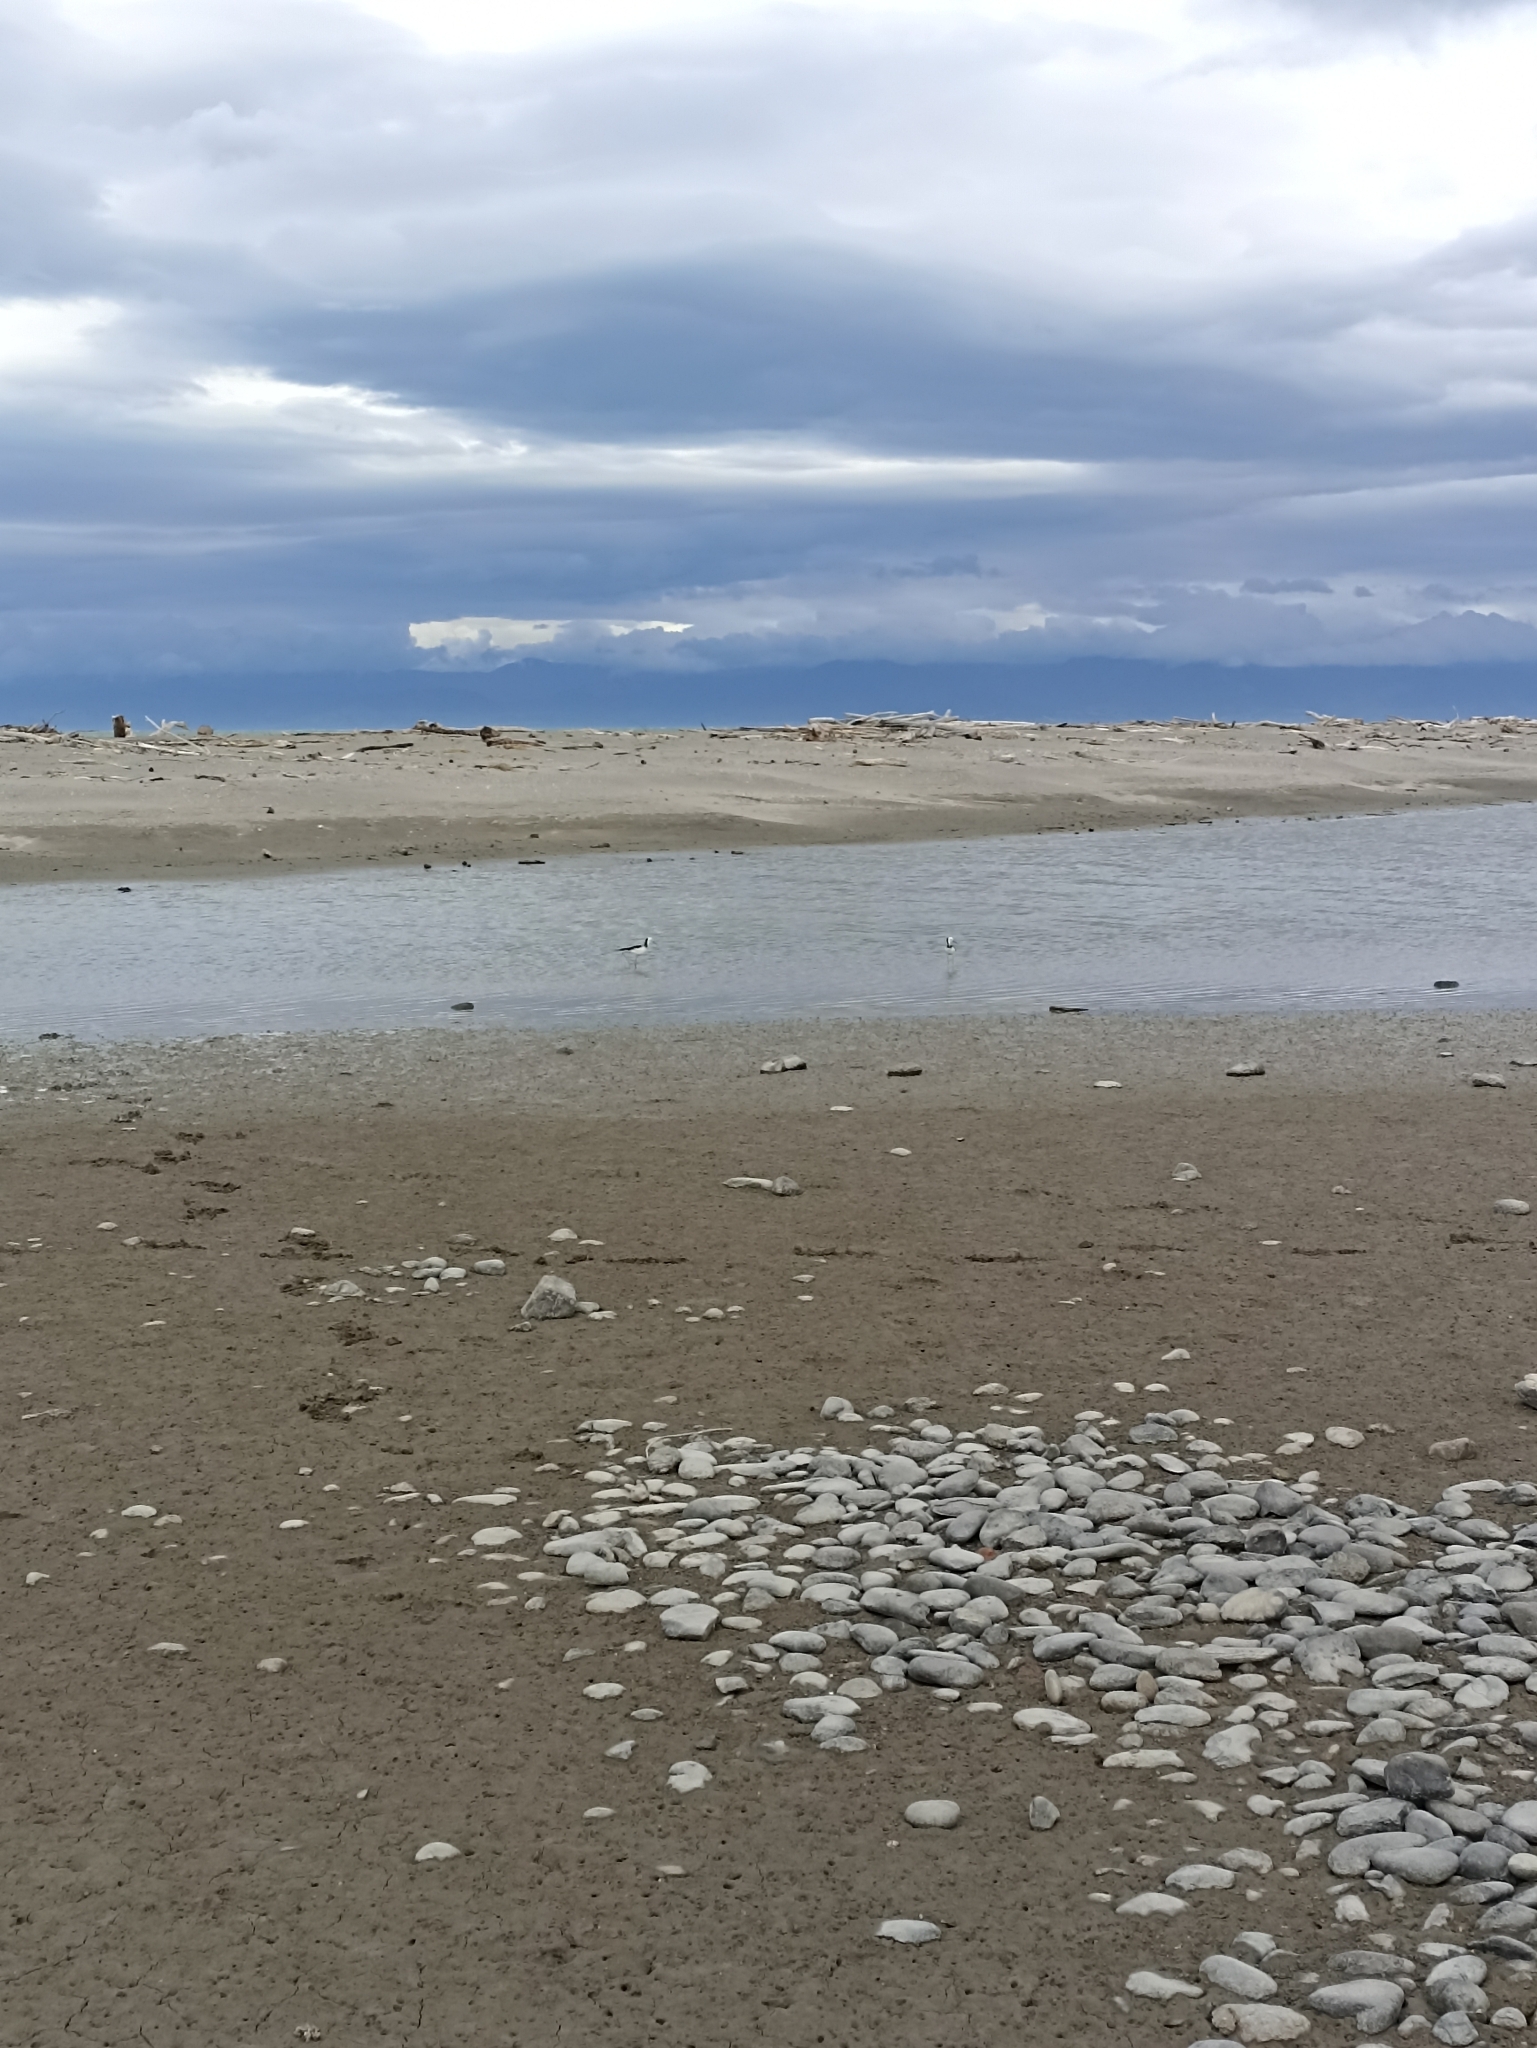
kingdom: Animalia
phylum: Chordata
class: Aves
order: Charadriiformes
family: Recurvirostridae
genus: Himantopus
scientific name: Himantopus leucocephalus
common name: White-headed stilt
